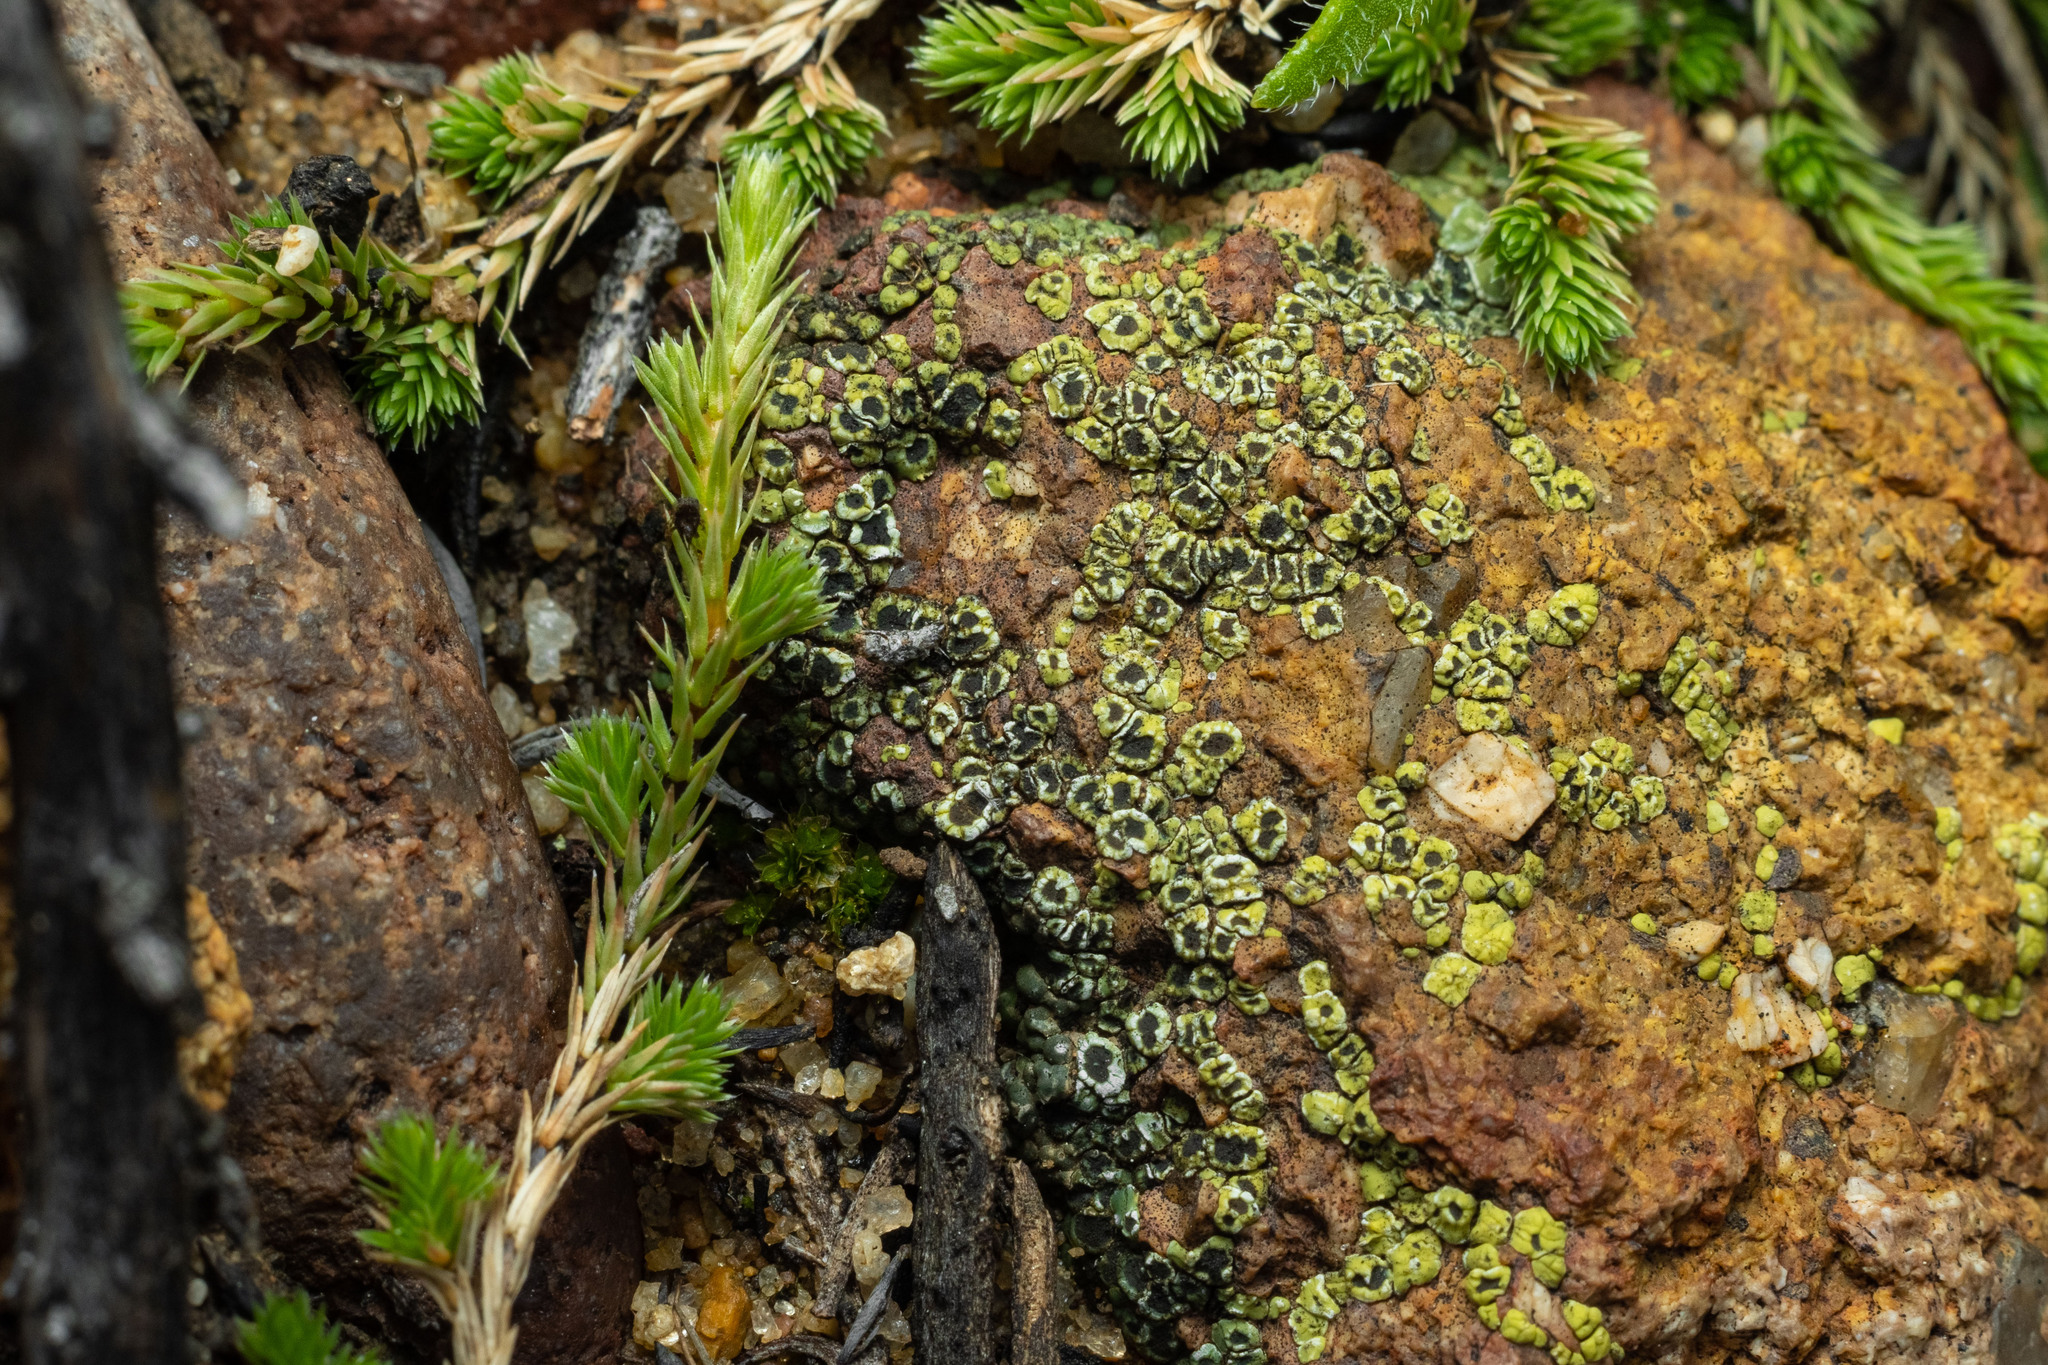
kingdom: Fungi
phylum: Ascomycota
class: Lecanoromycetes
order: Acarosporales
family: Acarosporaceae
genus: Acarospora
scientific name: Acarospora schleicheri
